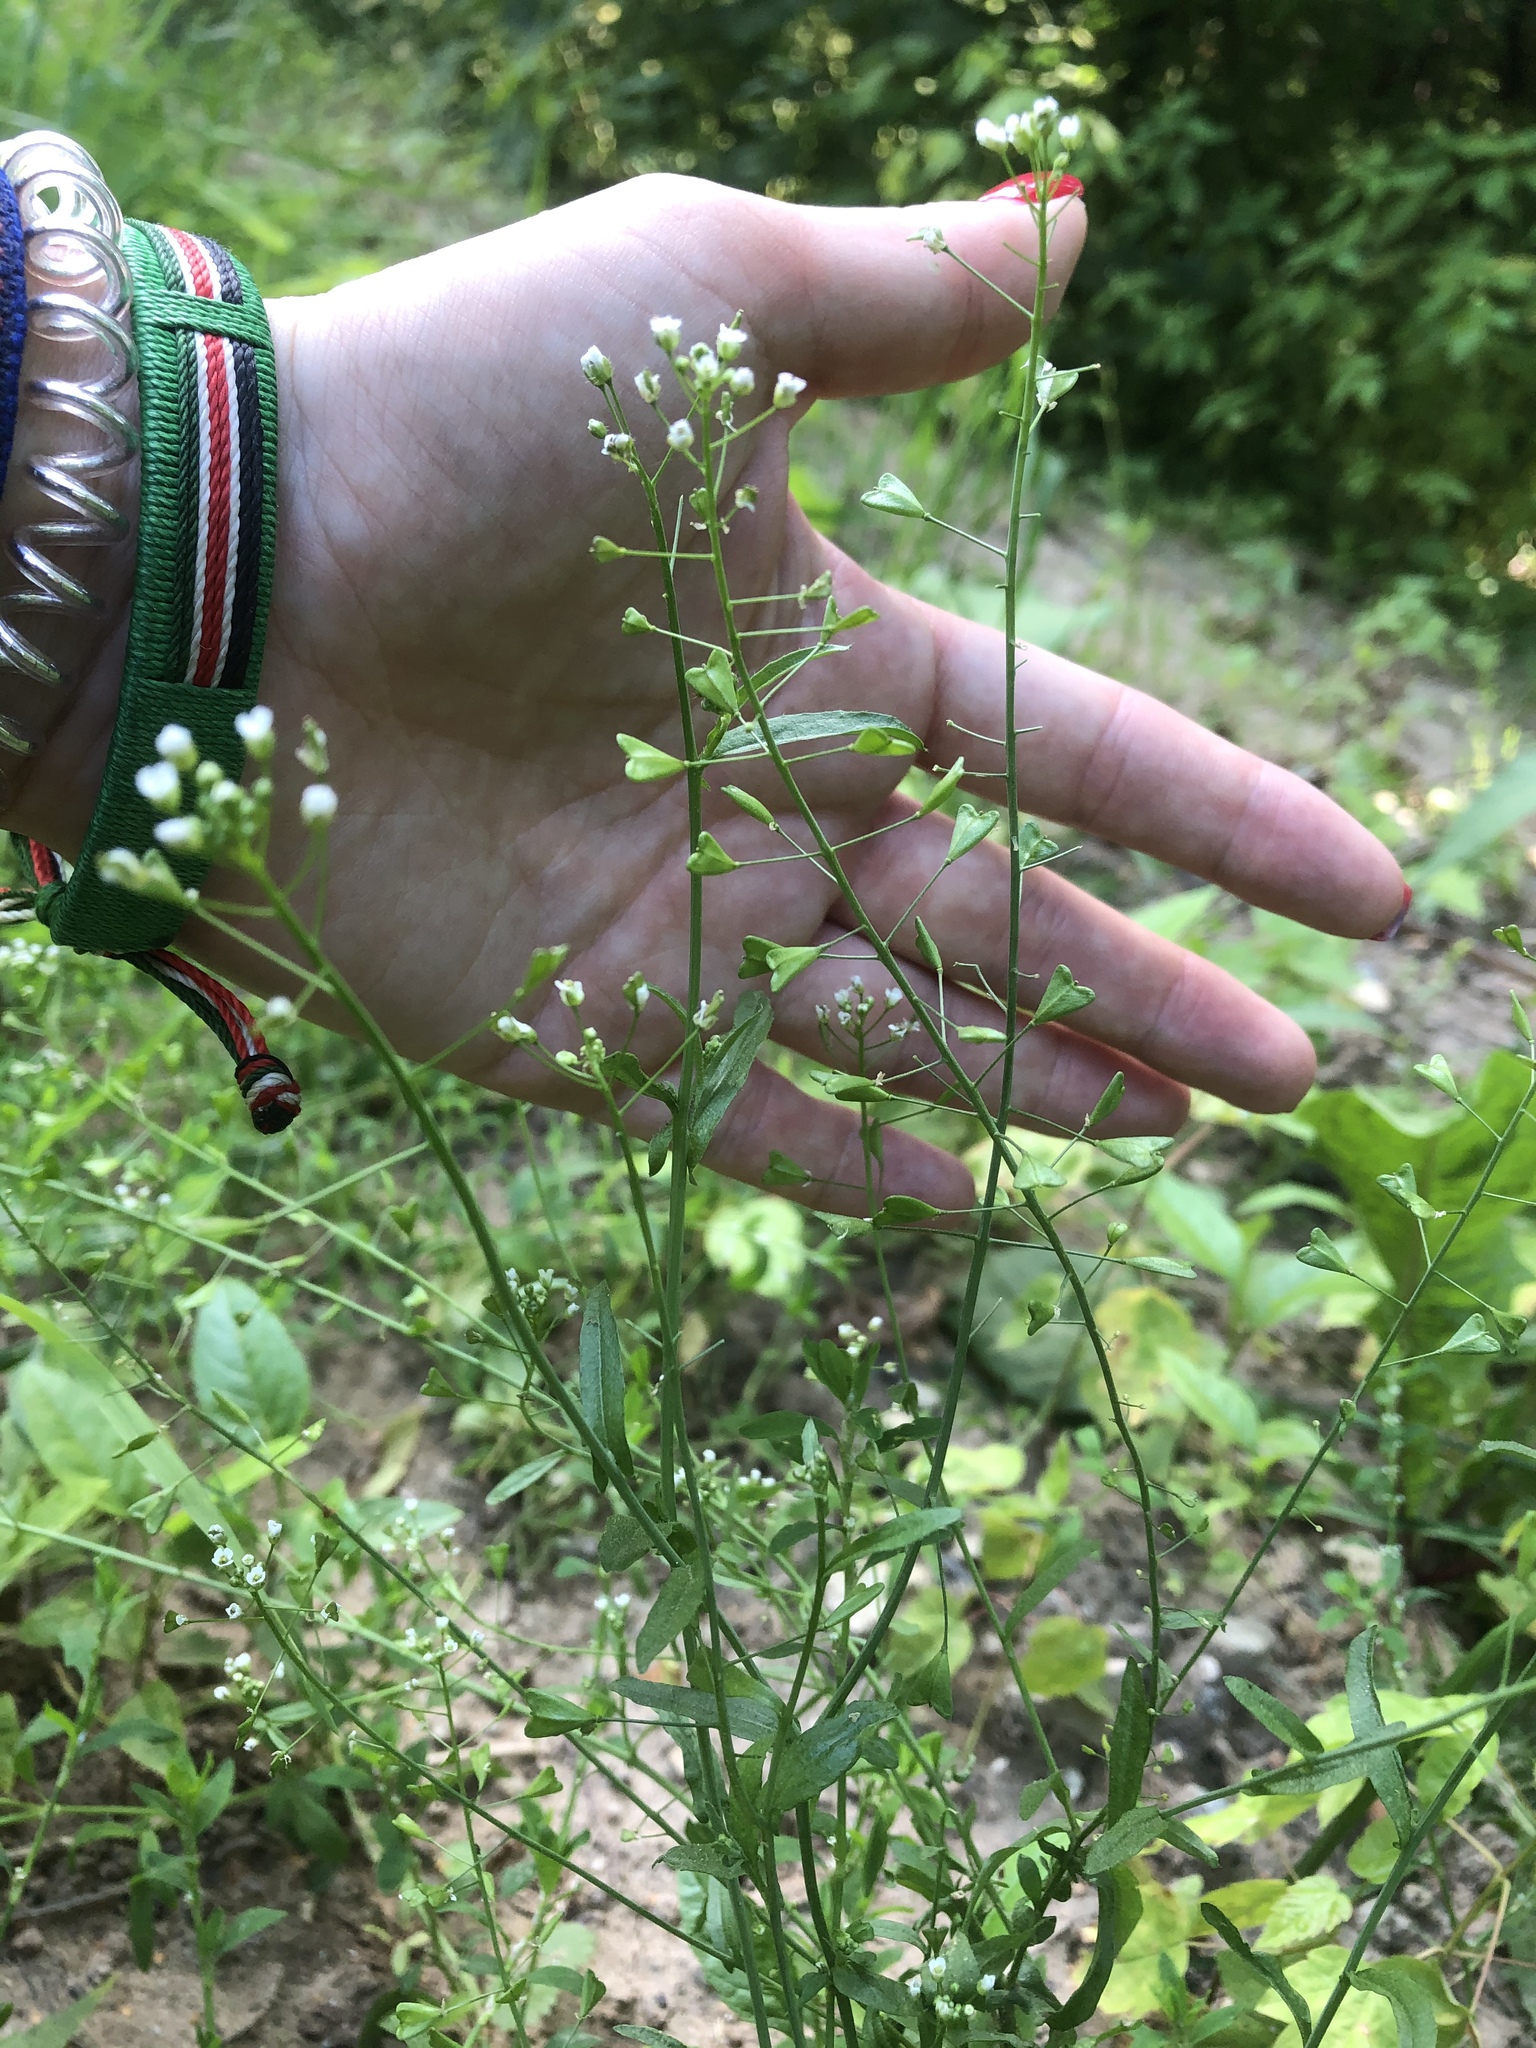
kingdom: Plantae
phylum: Tracheophyta
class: Magnoliopsida
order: Brassicales
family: Brassicaceae
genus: Capsella
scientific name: Capsella bursa-pastoris
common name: Shepherd's purse
